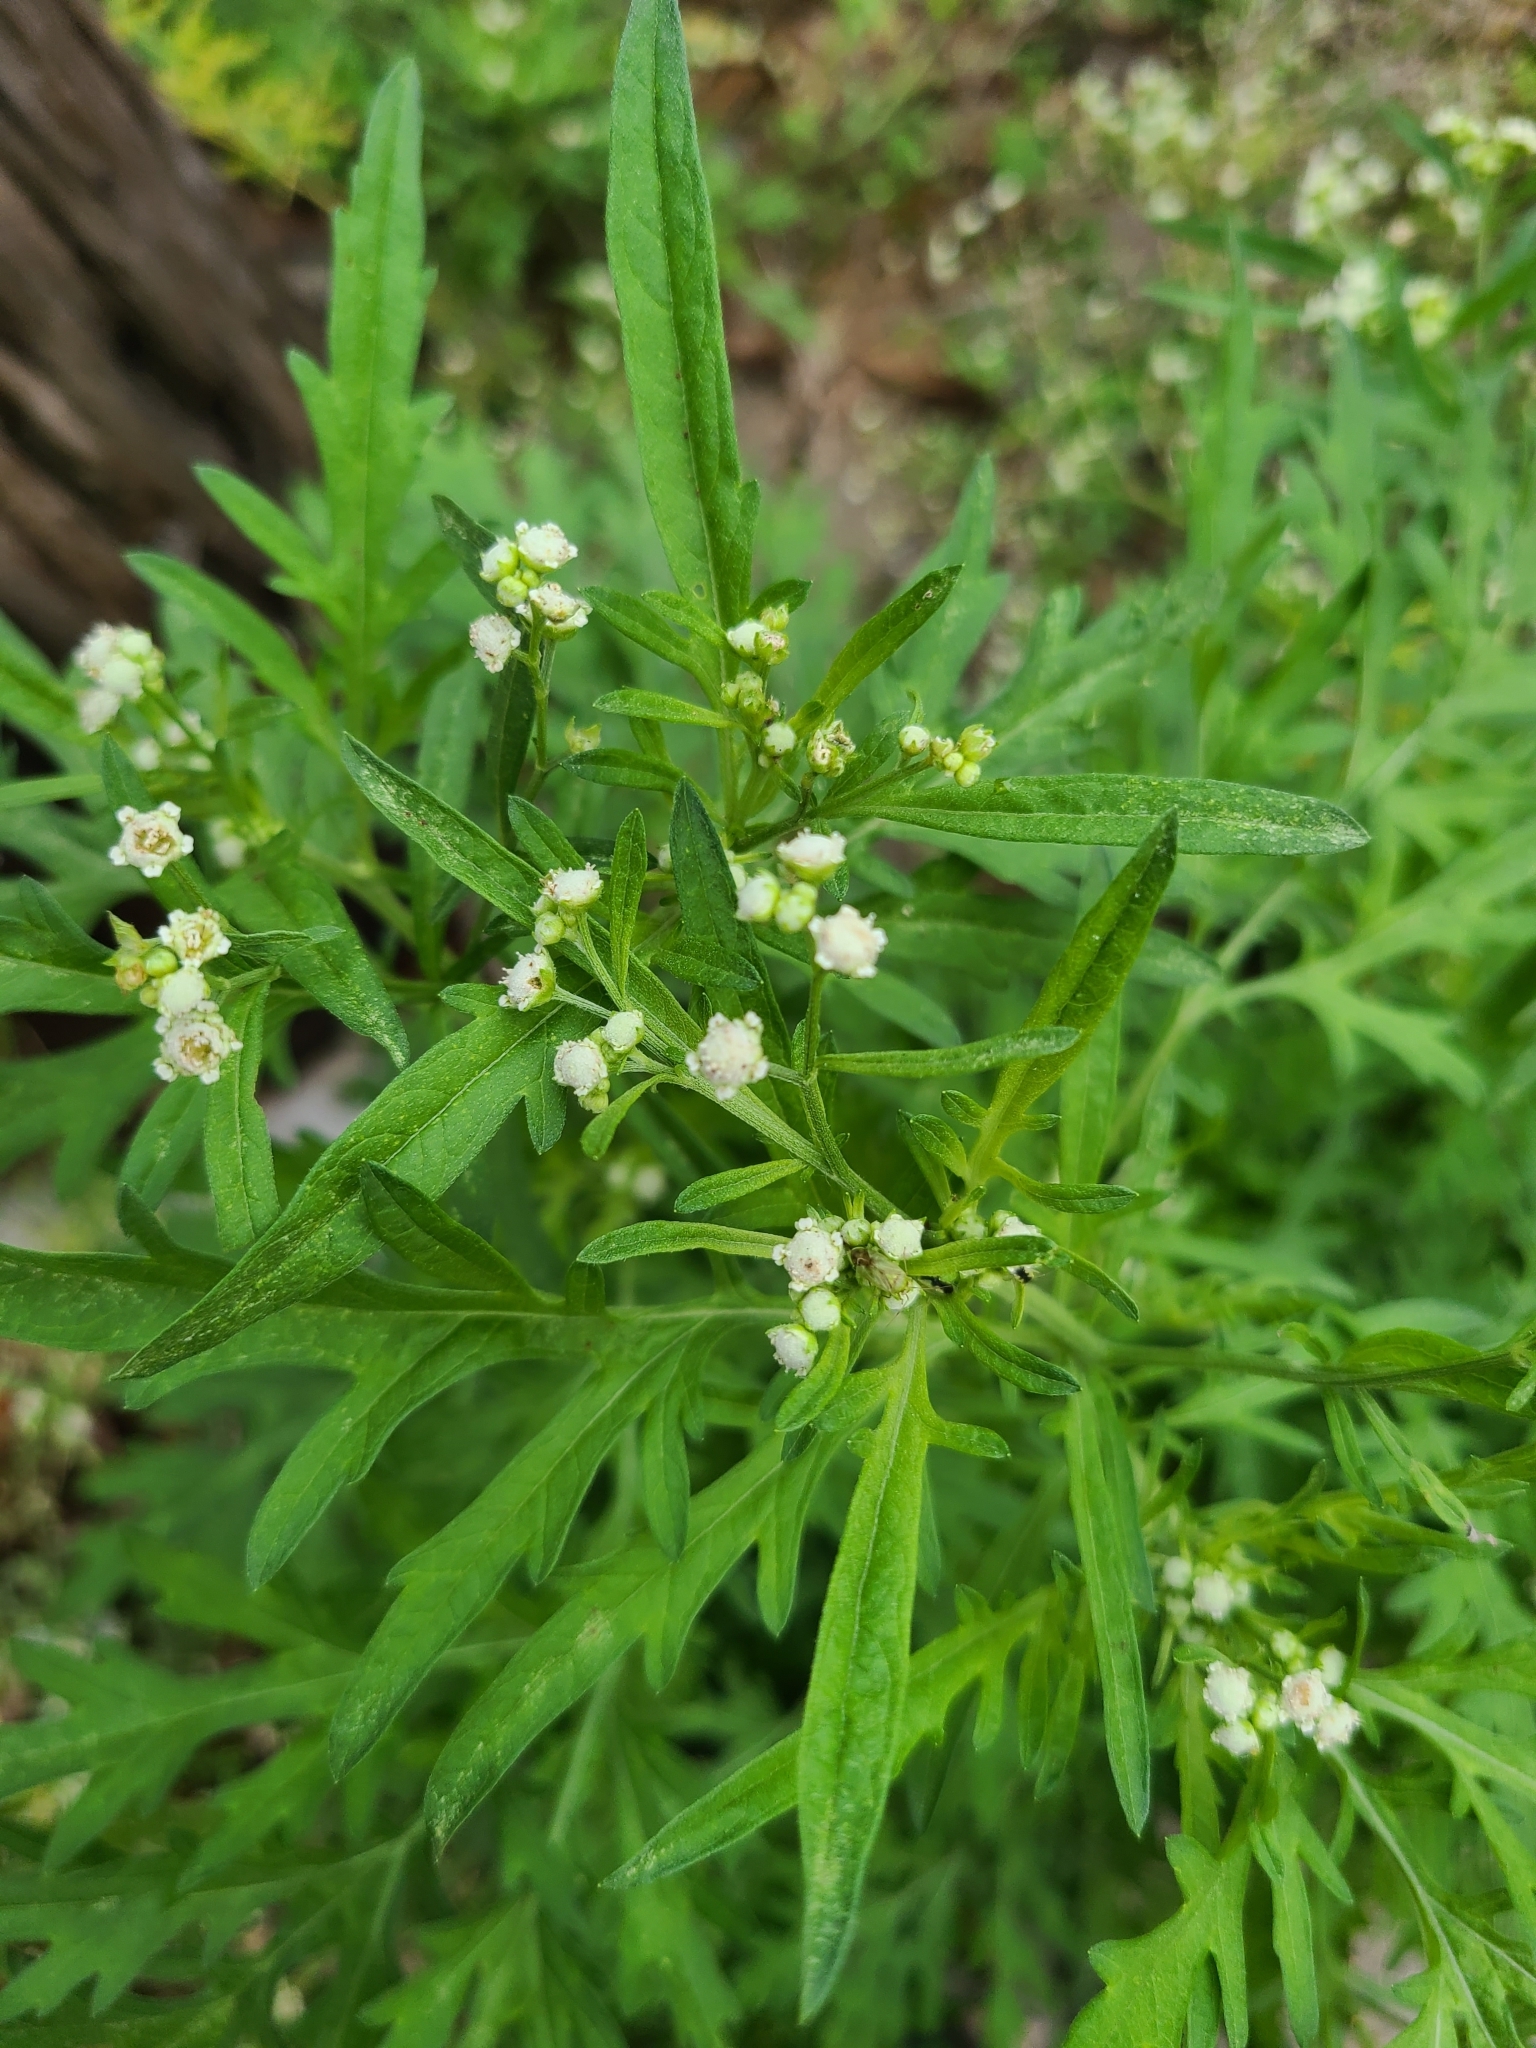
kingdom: Plantae
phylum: Tracheophyta
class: Magnoliopsida
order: Asterales
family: Asteraceae
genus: Parthenium
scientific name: Parthenium hysterophorus
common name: Santa maria feverfew
